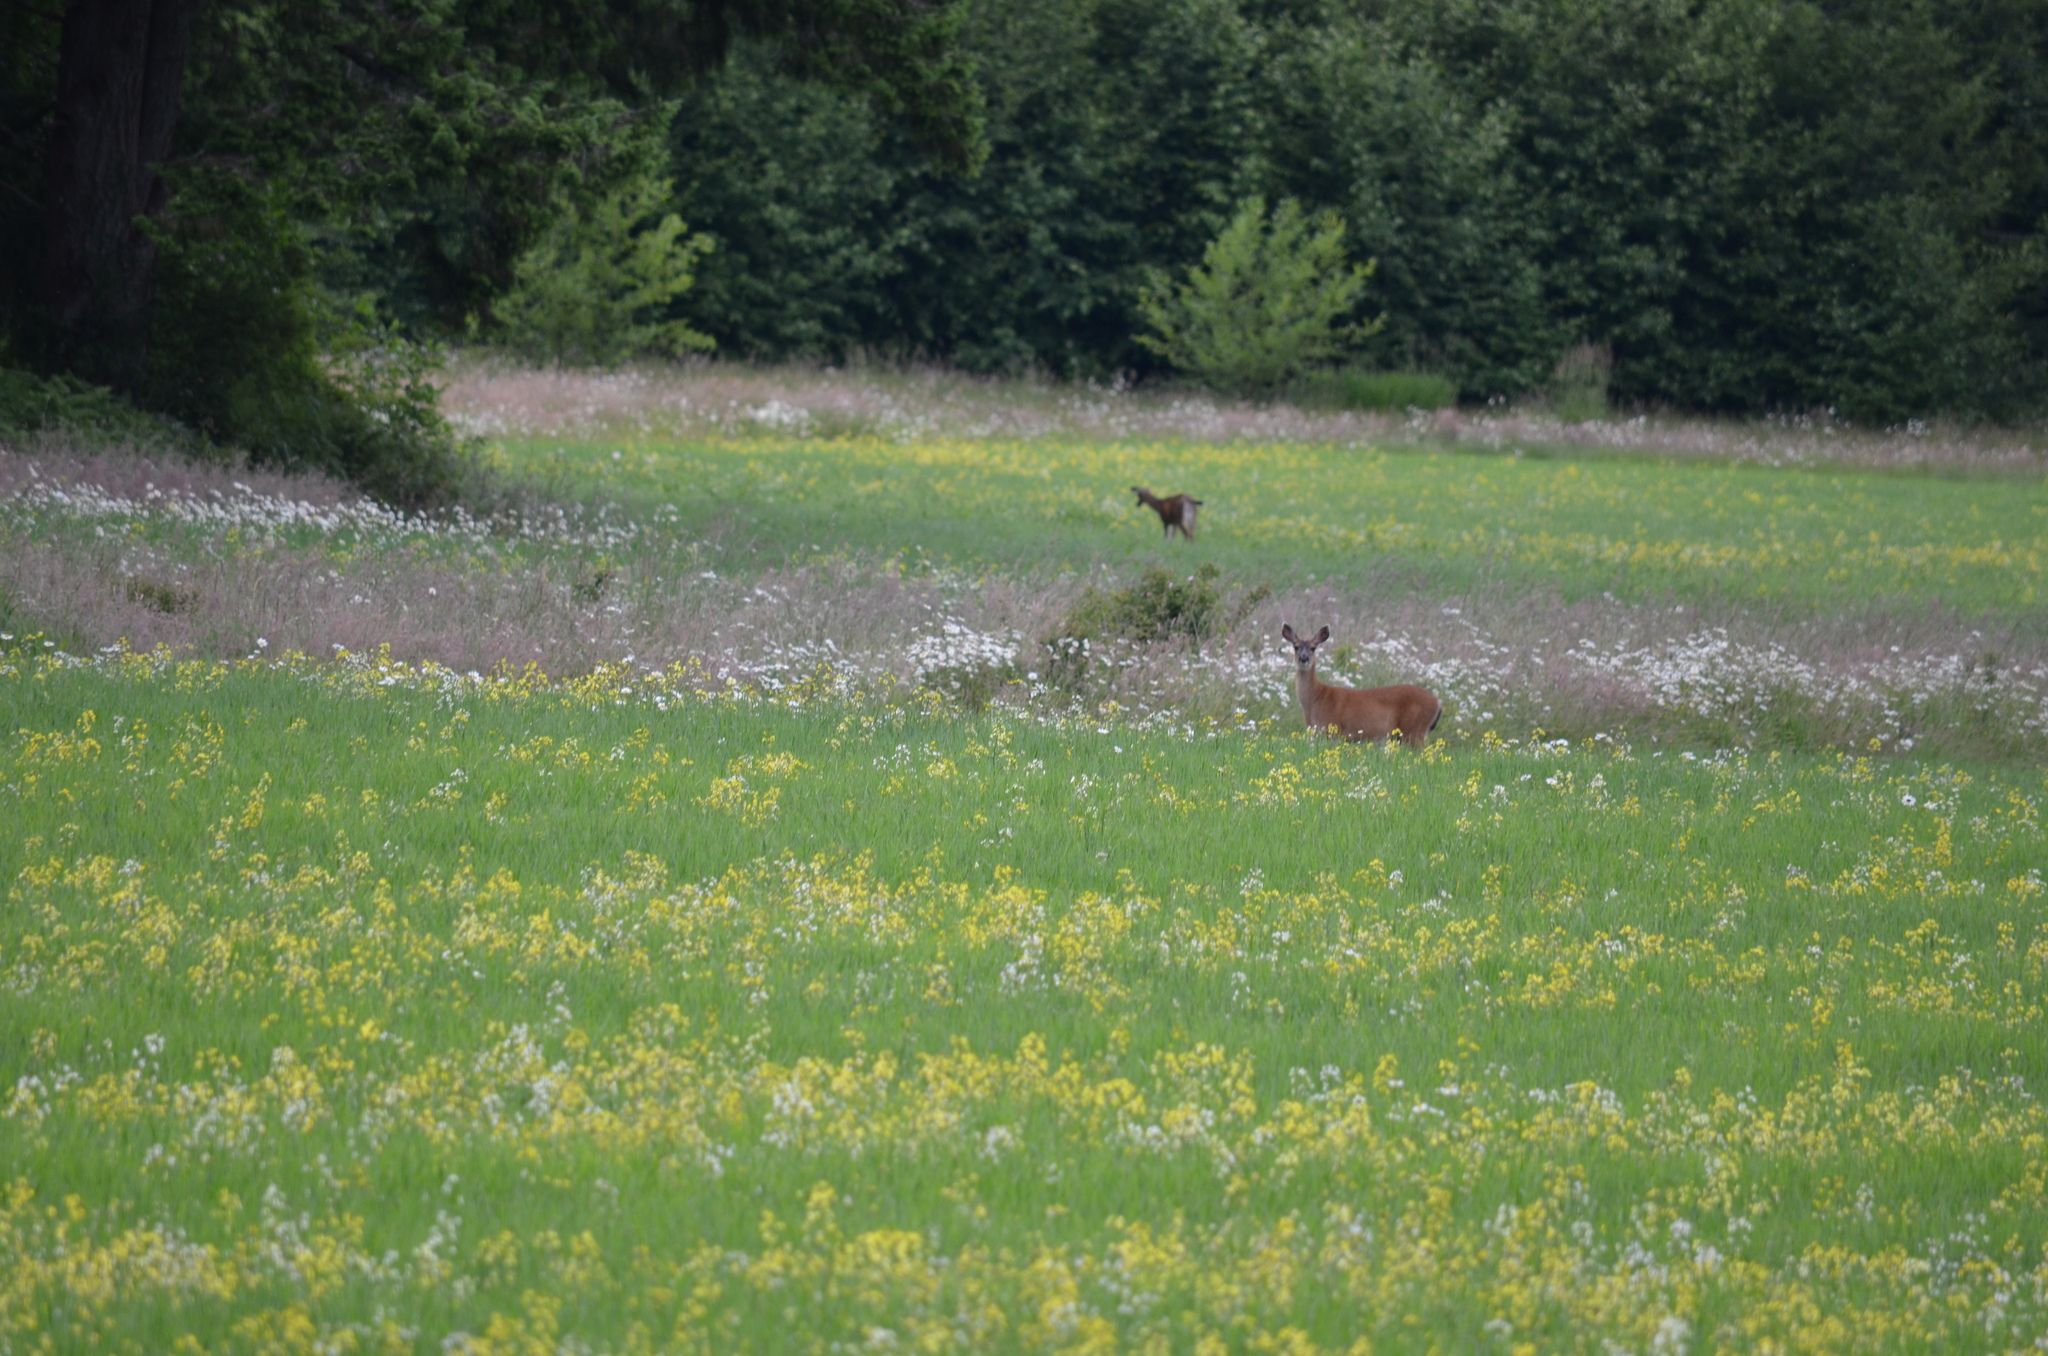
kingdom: Animalia
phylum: Chordata
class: Mammalia
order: Artiodactyla
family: Cervidae
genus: Odocoileus
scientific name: Odocoileus hemionus
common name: Mule deer
